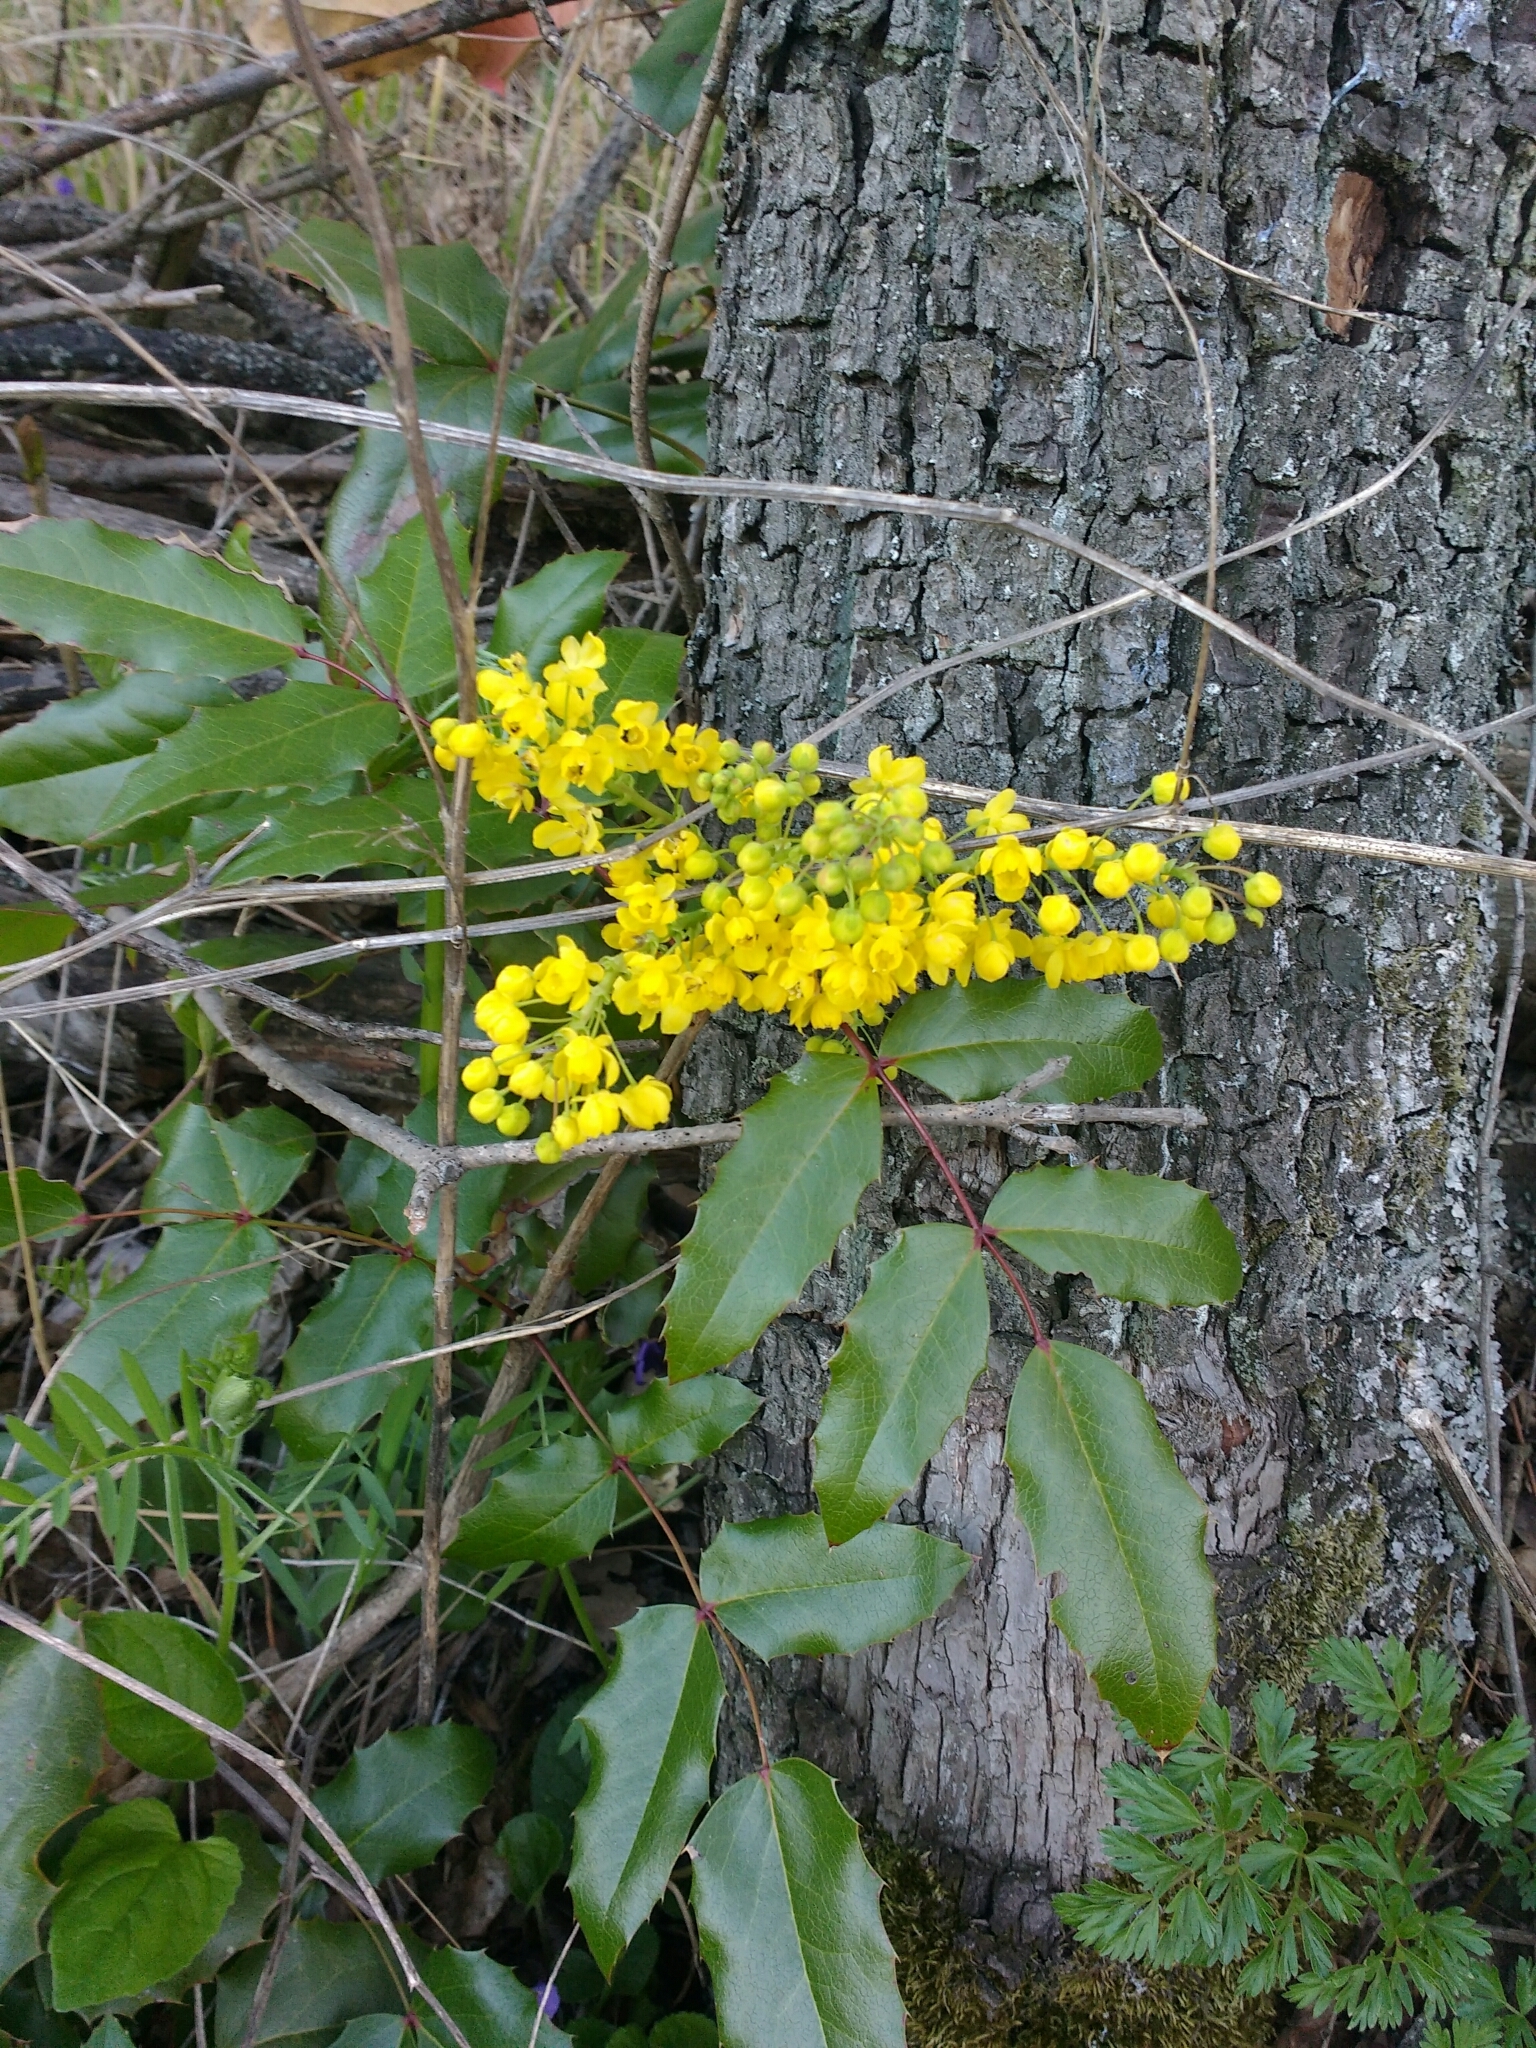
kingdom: Plantae
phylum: Tracheophyta
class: Magnoliopsida
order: Ranunculales
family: Berberidaceae
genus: Mahonia
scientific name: Mahonia aquifolium
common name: Oregon-grape
